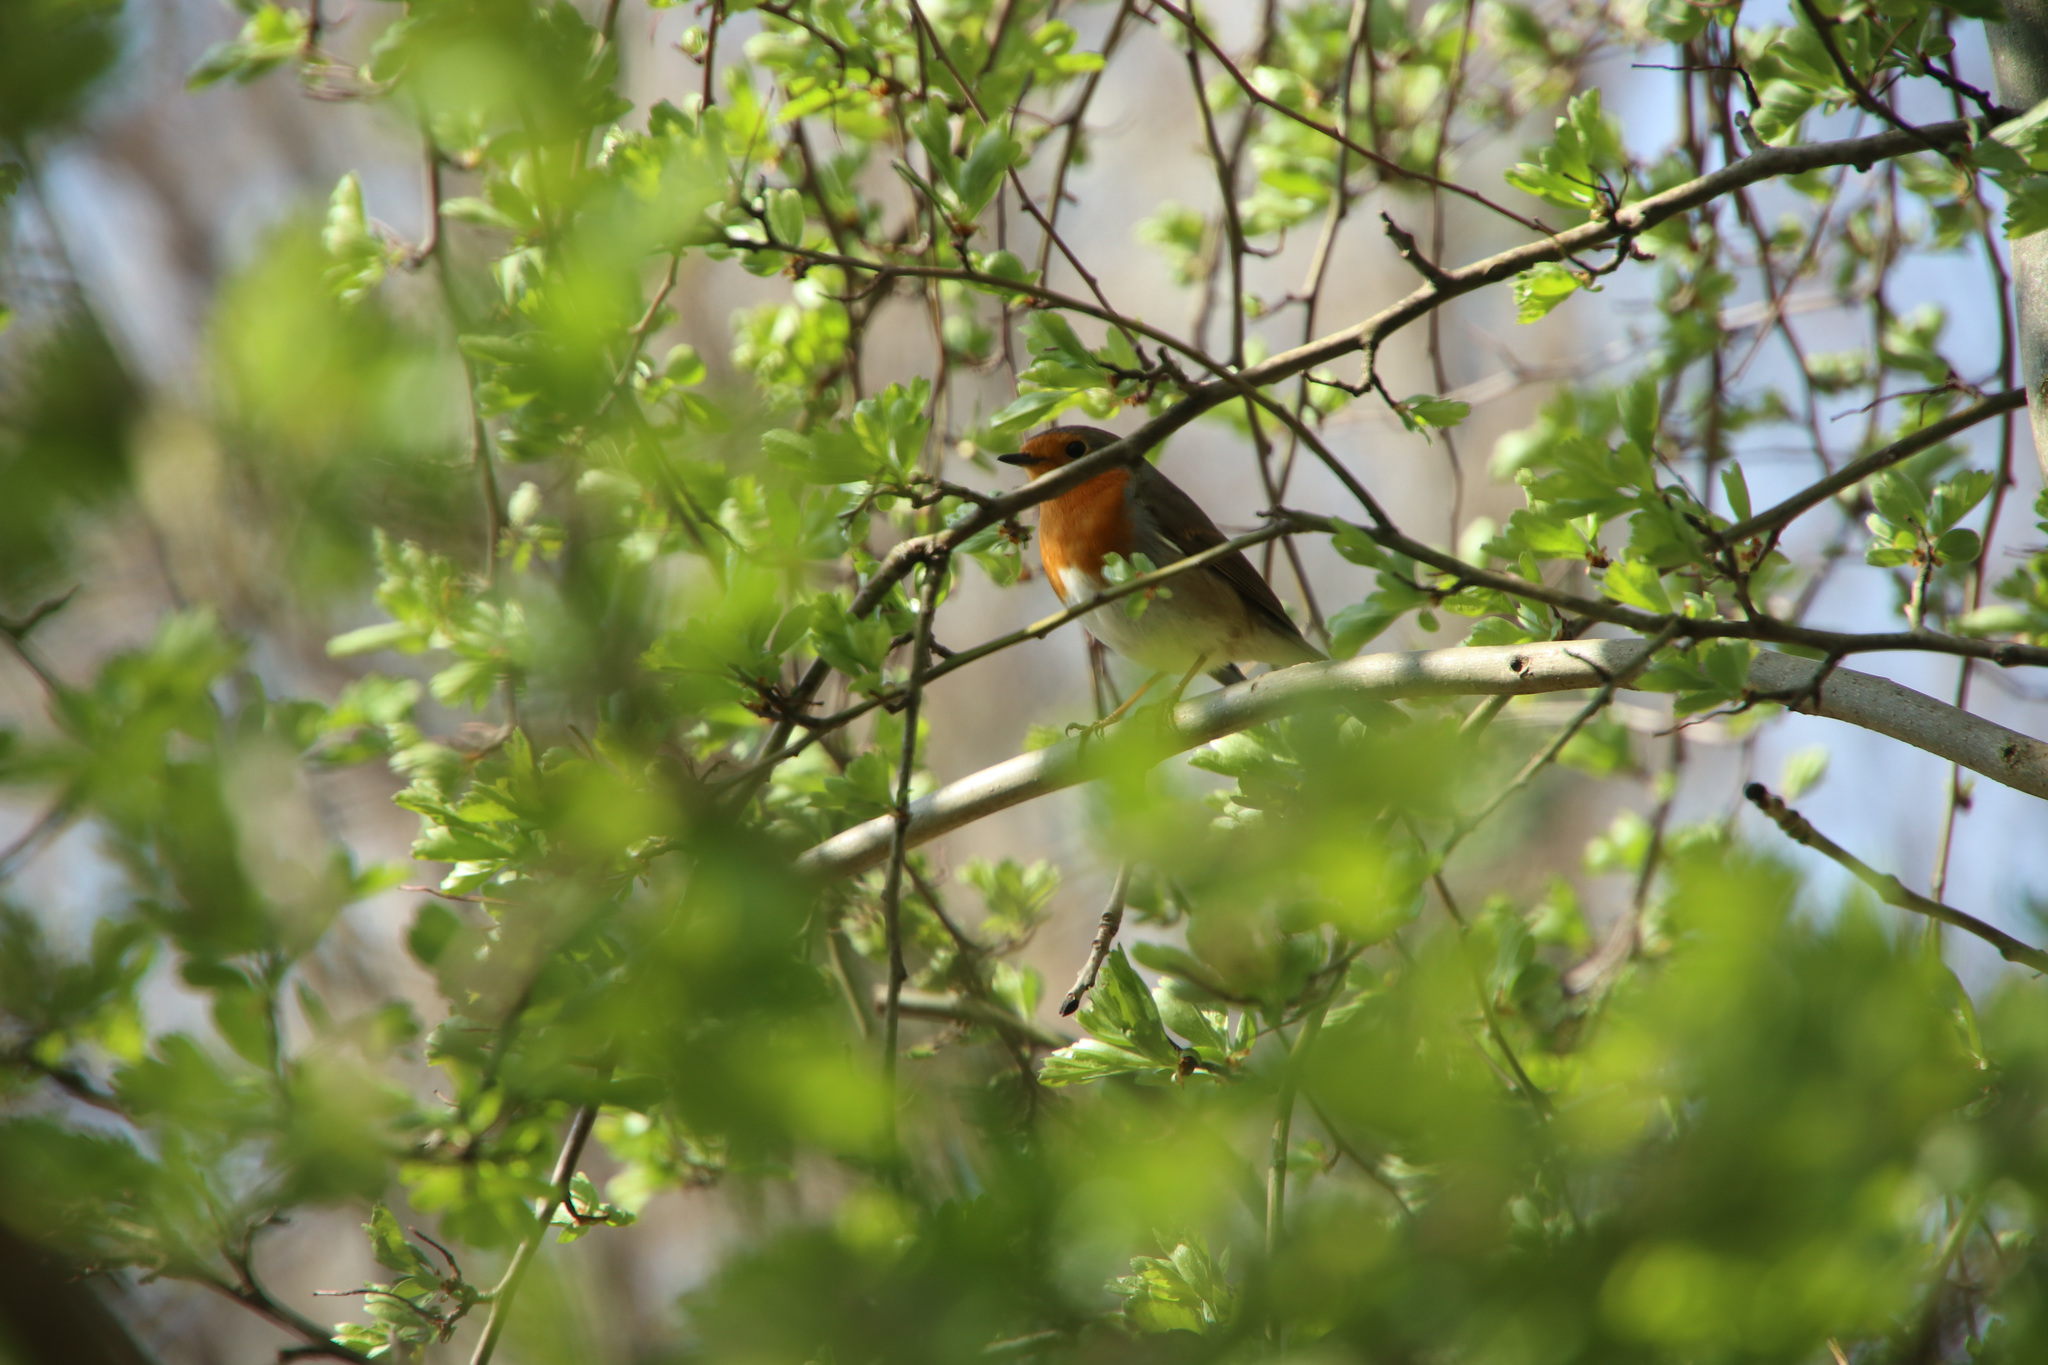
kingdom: Animalia
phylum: Chordata
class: Aves
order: Passeriformes
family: Muscicapidae
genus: Erithacus
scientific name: Erithacus rubecula
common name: European robin
